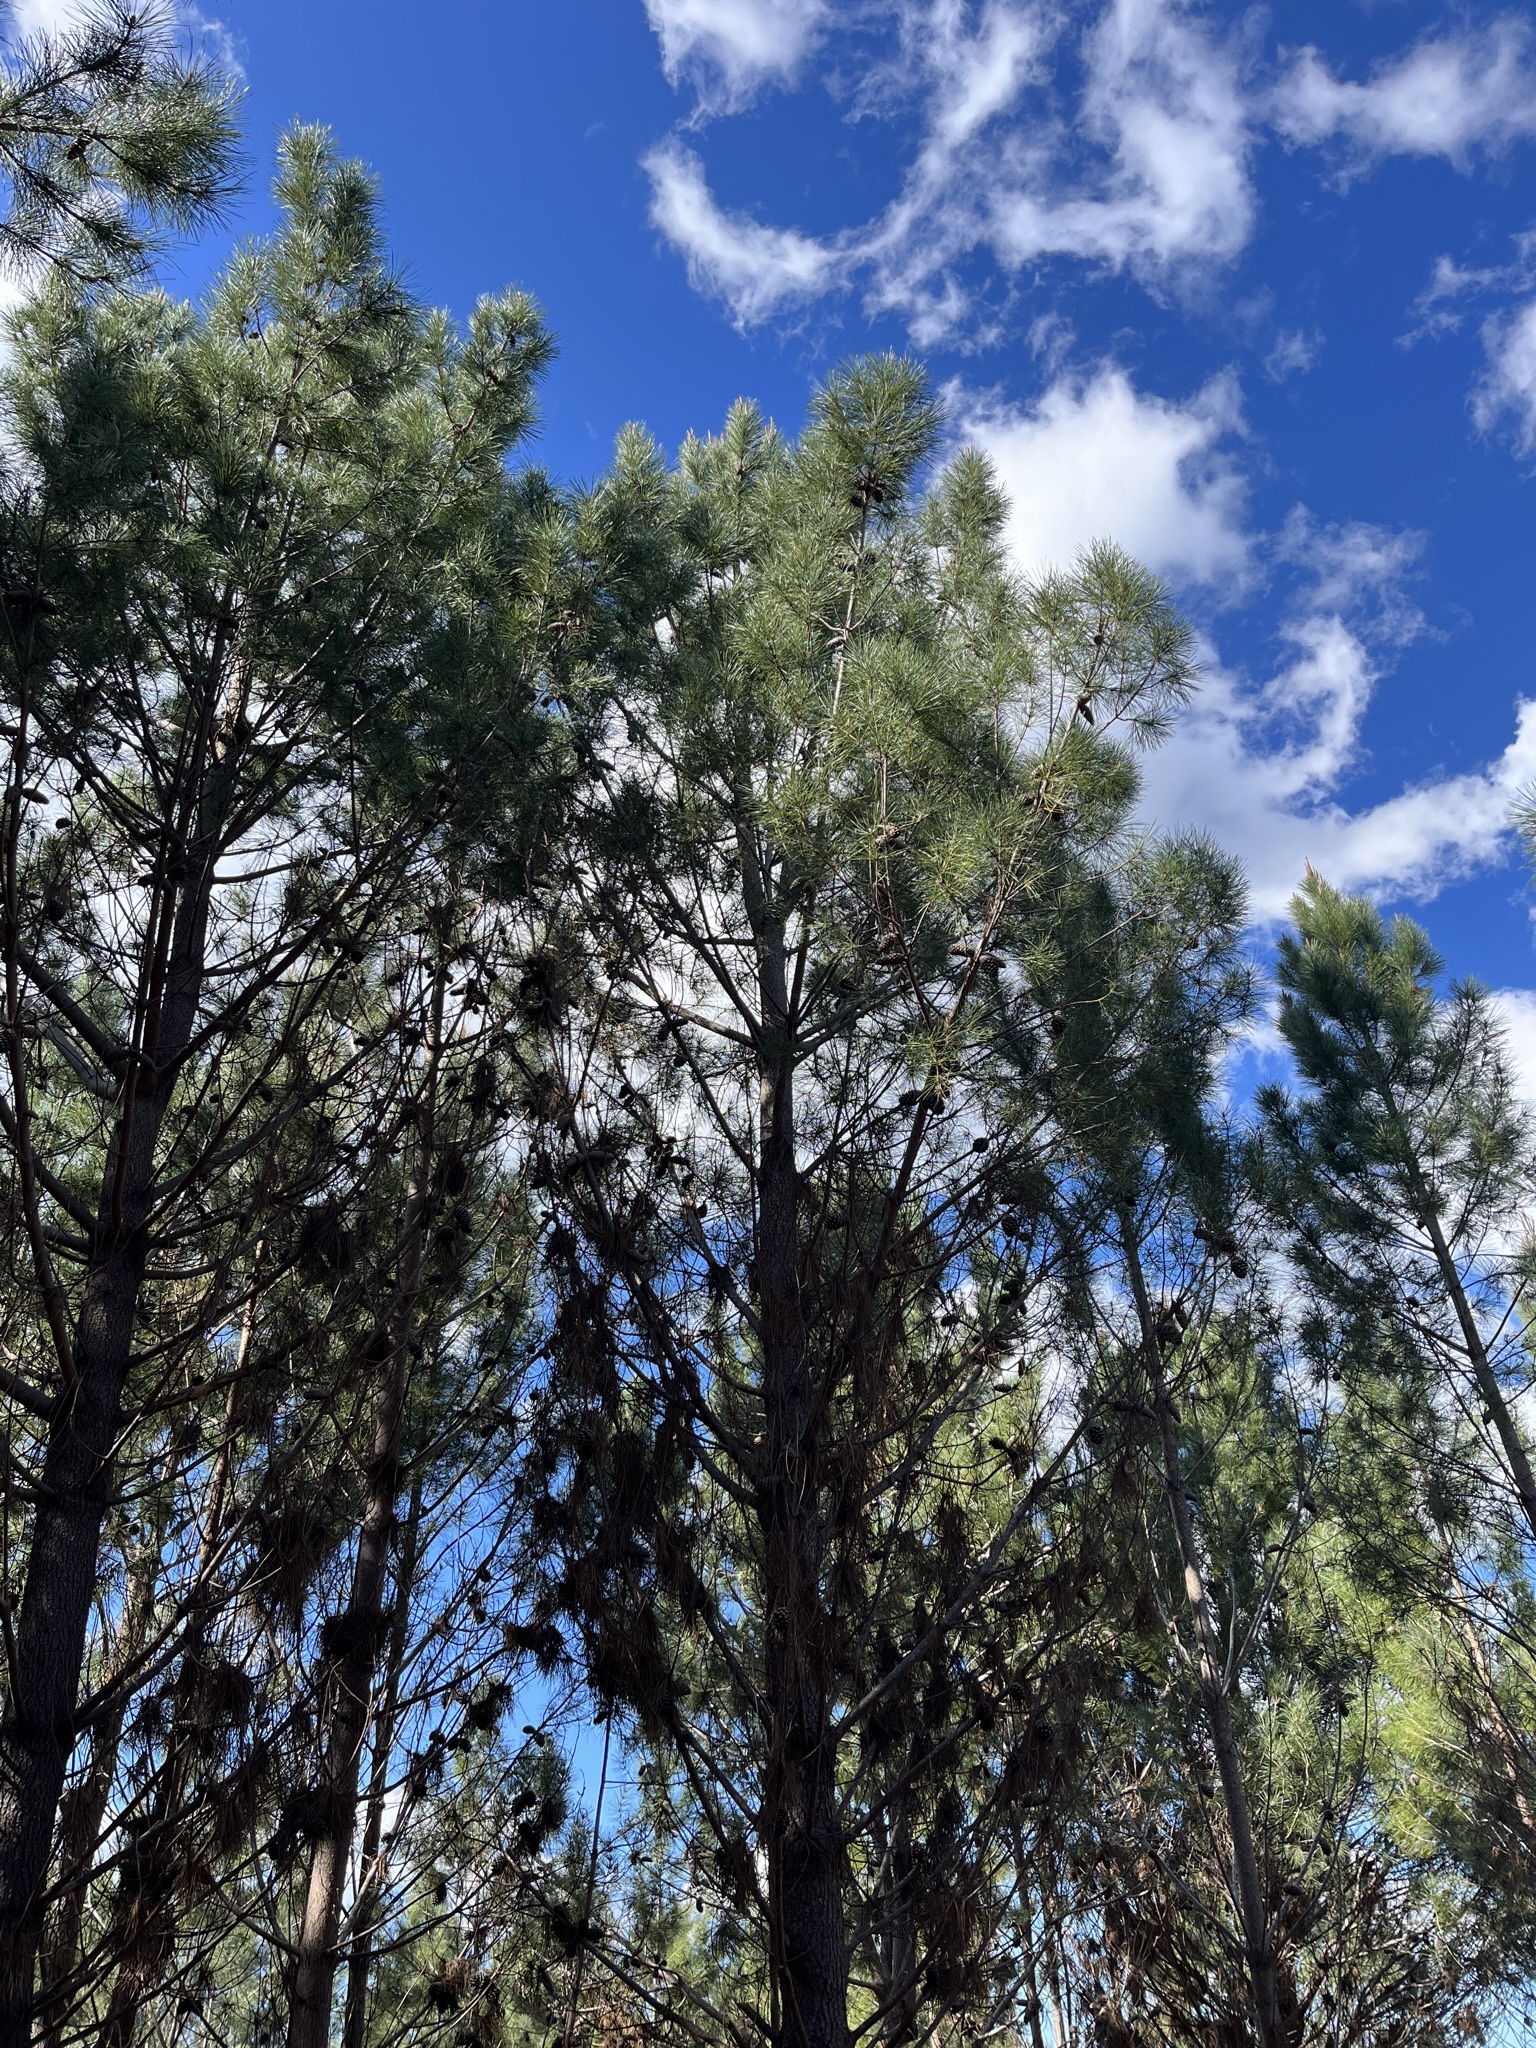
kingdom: Plantae
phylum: Tracheophyta
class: Pinopsida
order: Pinales
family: Pinaceae
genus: Pinus
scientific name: Pinus pinaster
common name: Maritime pine
